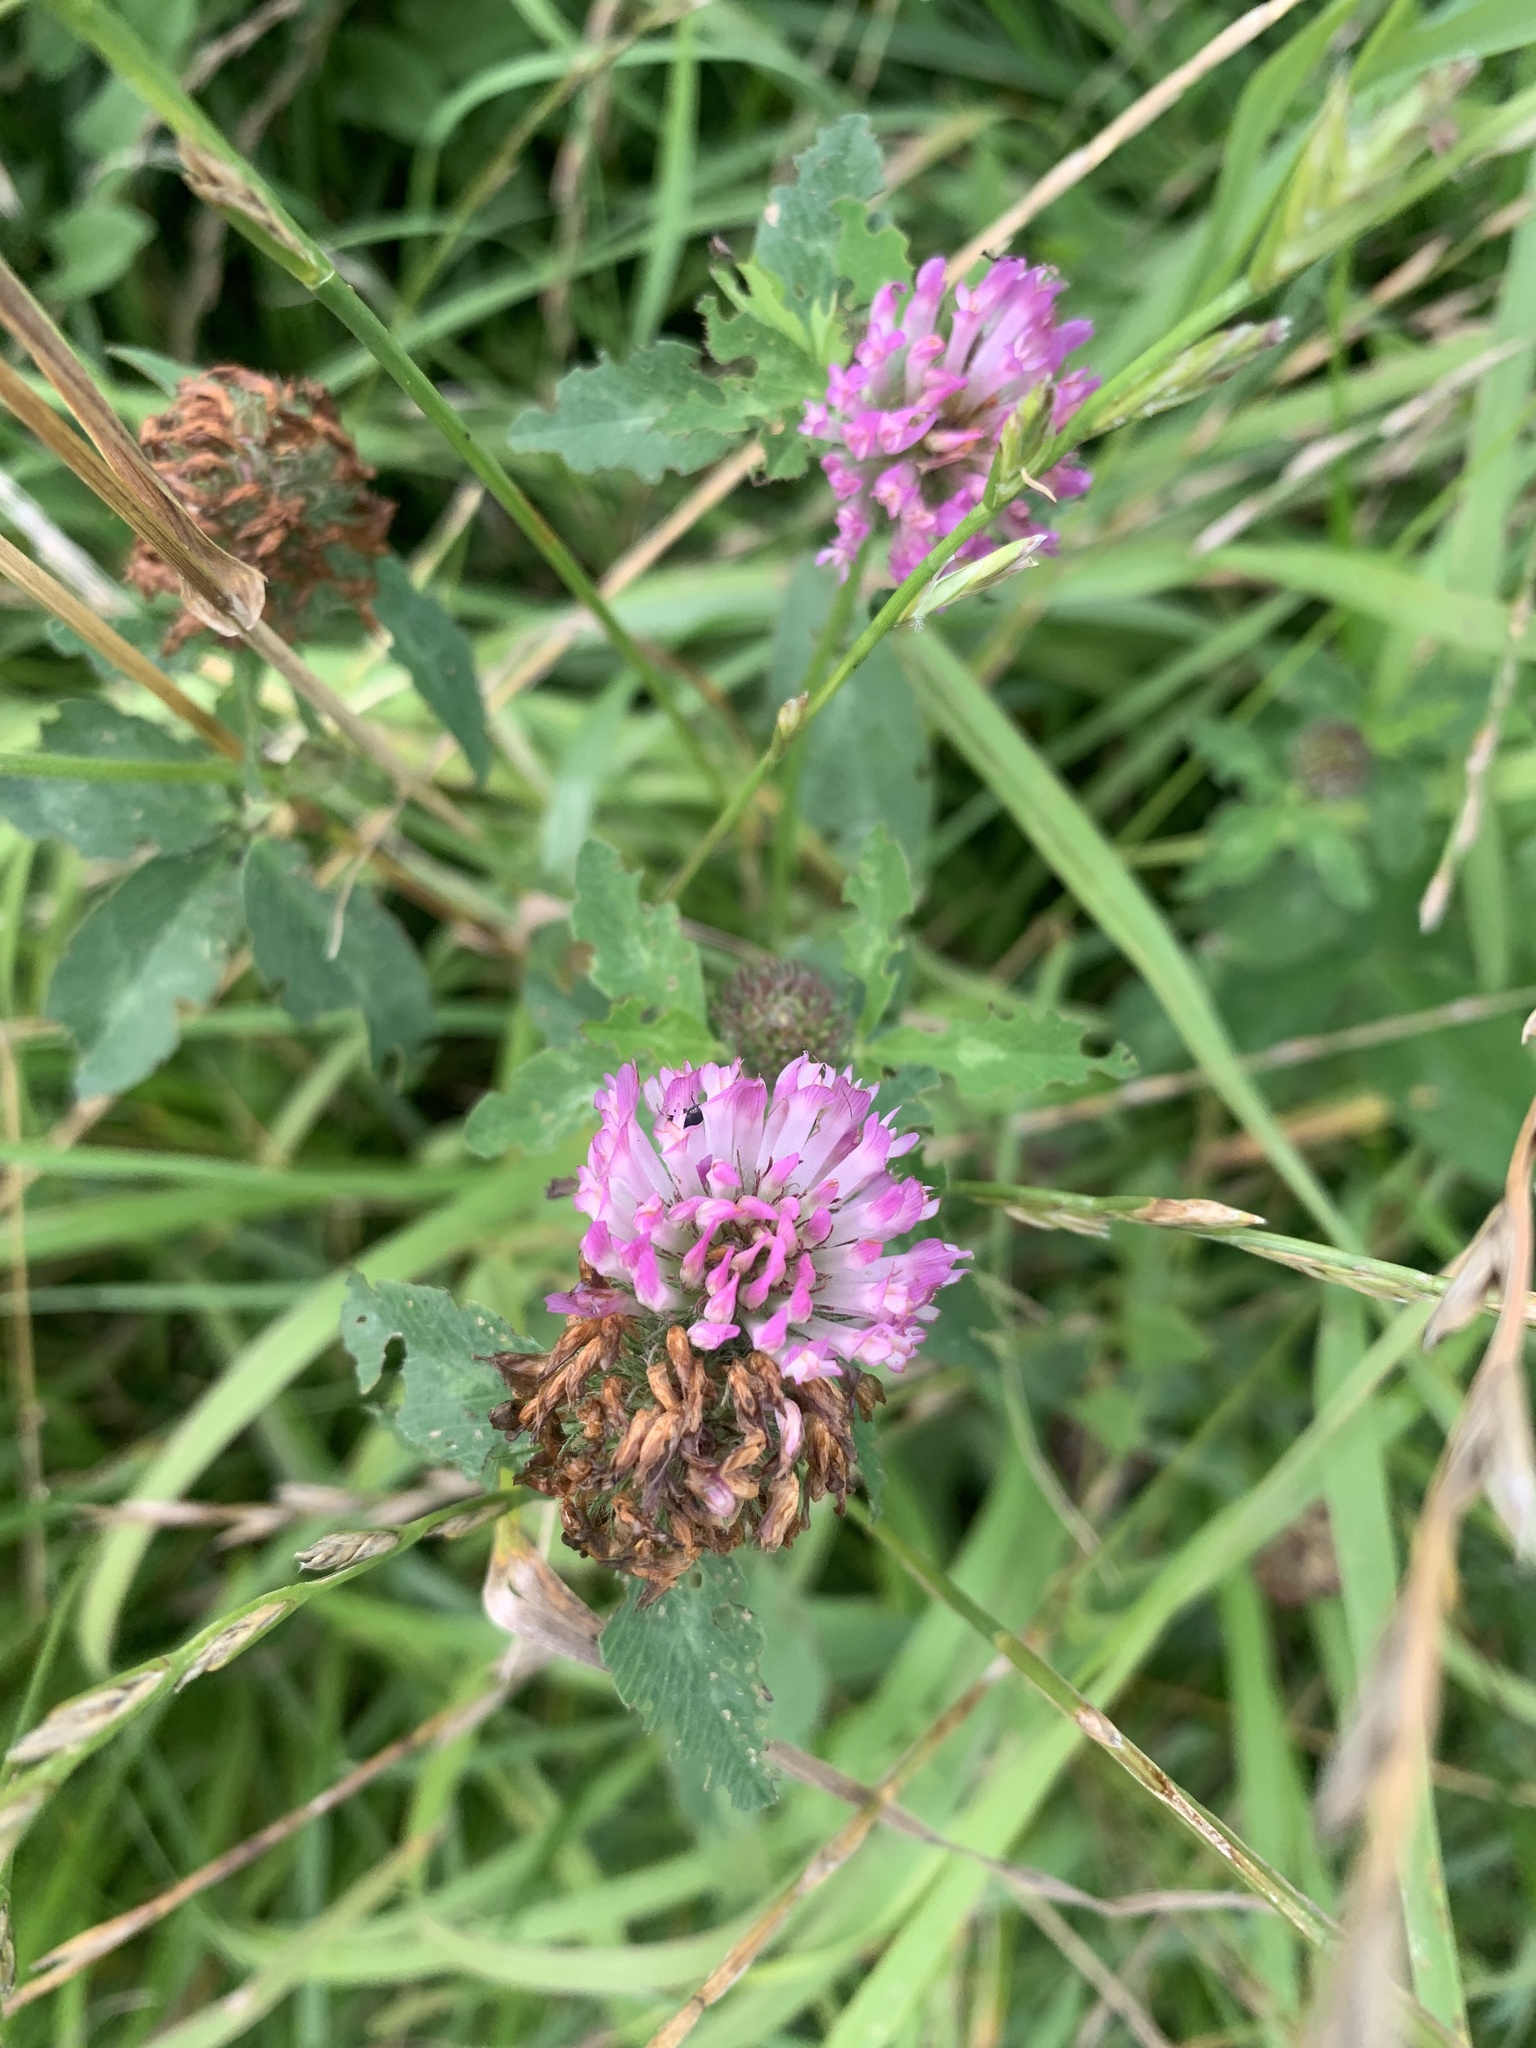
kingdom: Plantae
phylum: Tracheophyta
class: Magnoliopsida
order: Fabales
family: Fabaceae
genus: Trifolium
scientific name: Trifolium pratense
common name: Red clover
